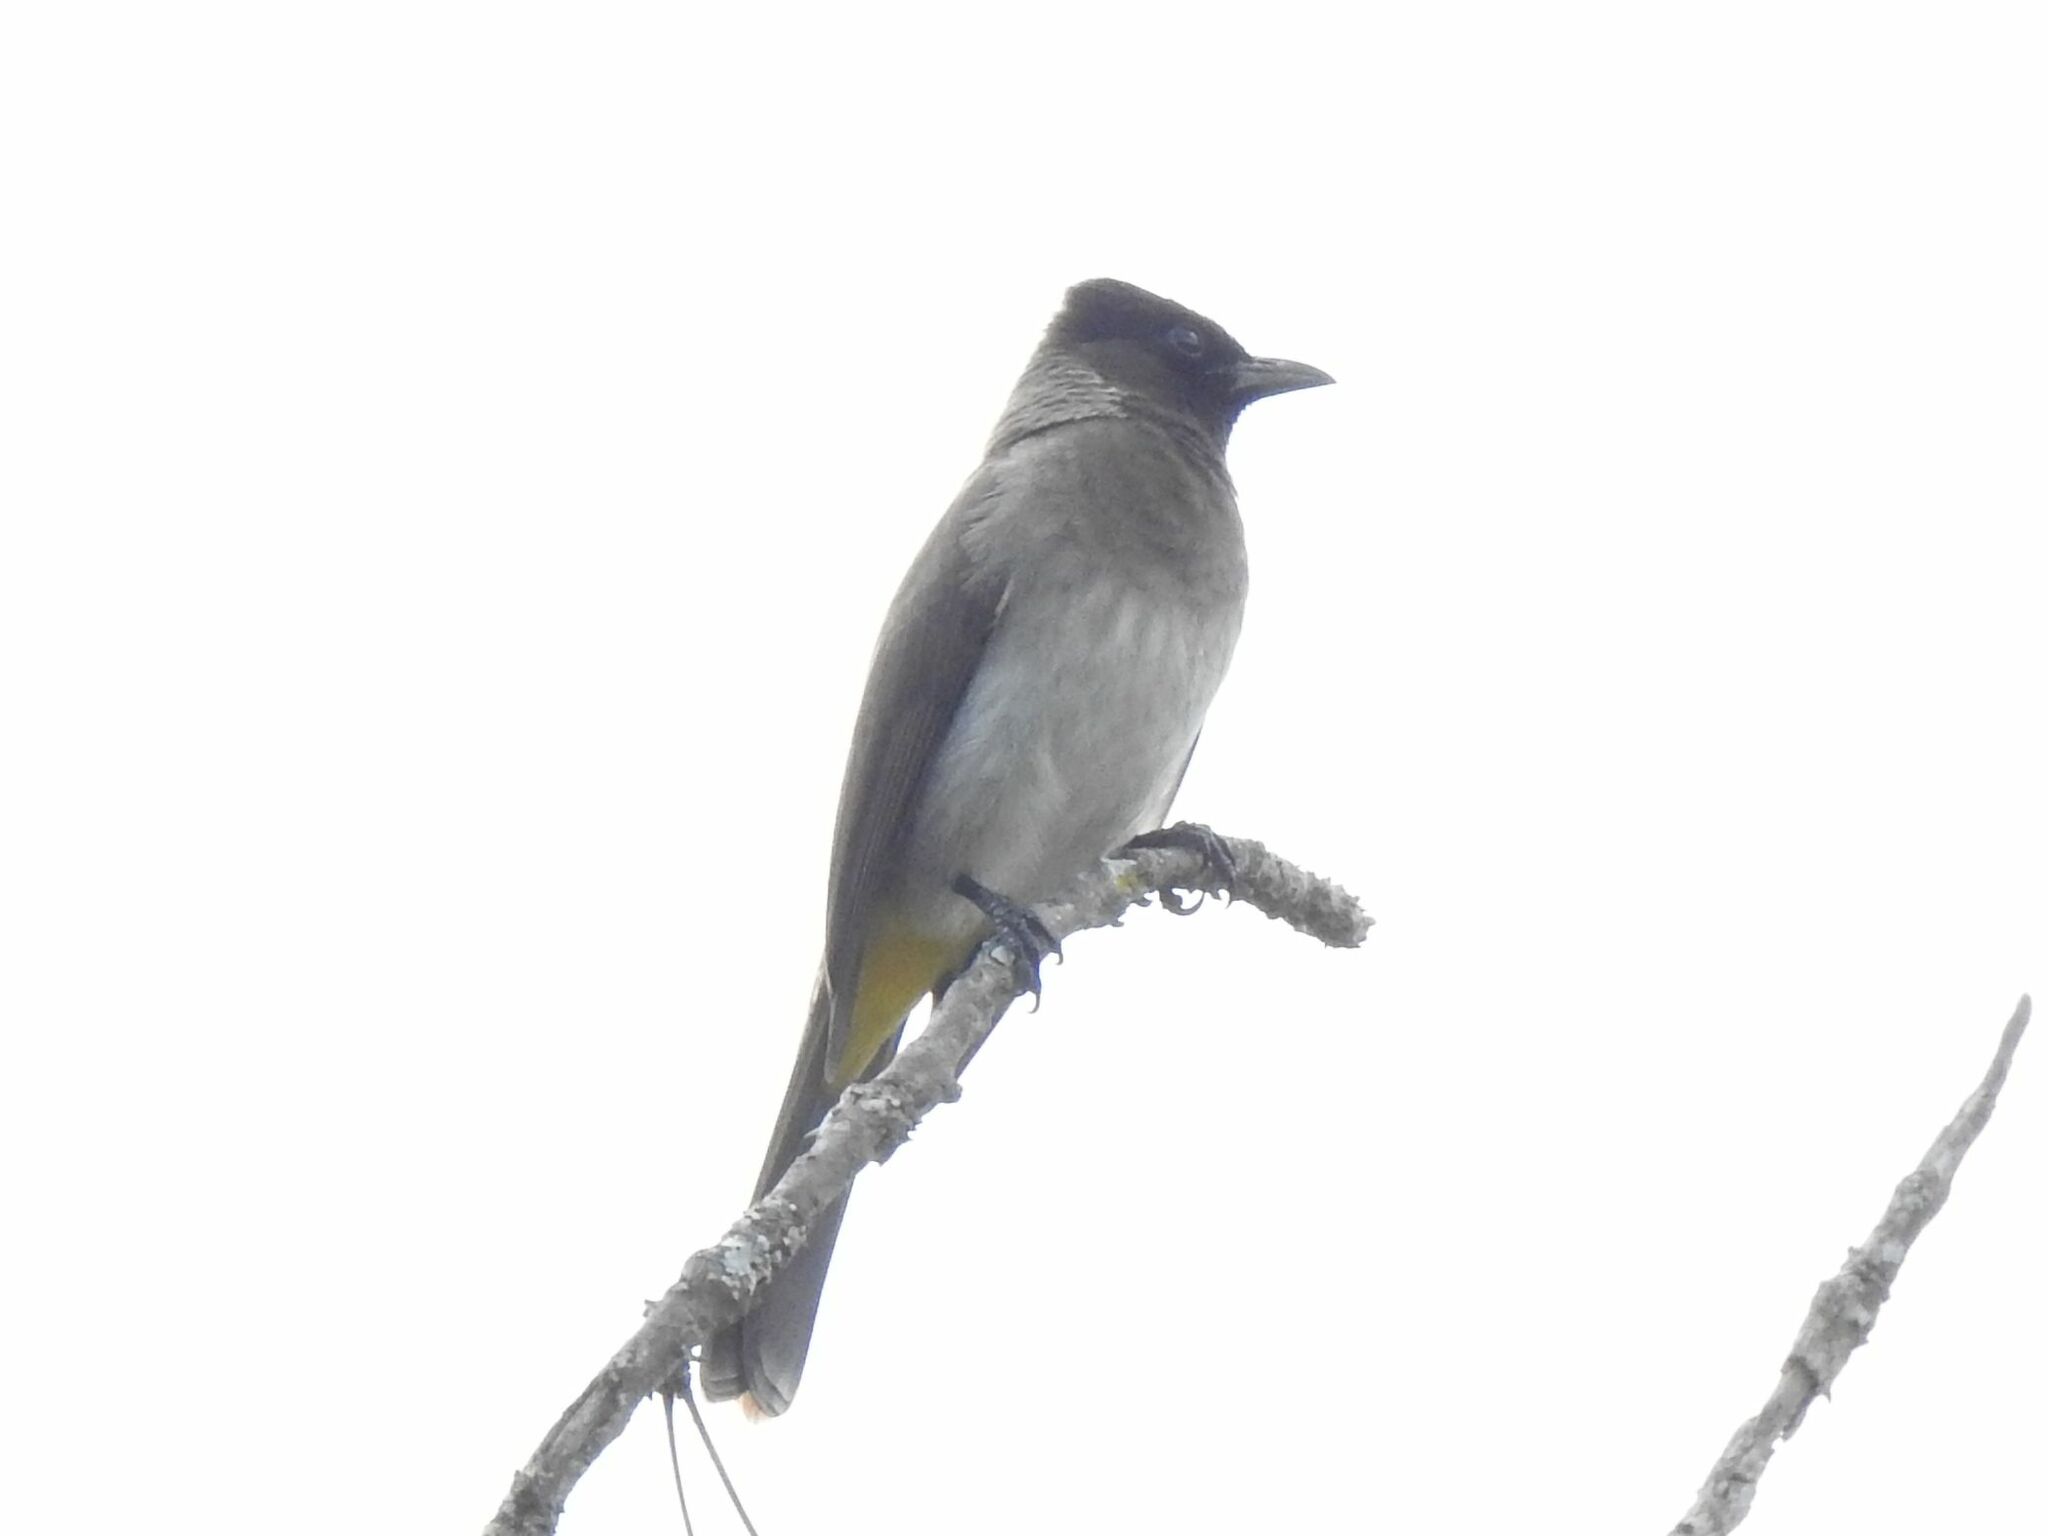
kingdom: Animalia
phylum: Chordata
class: Aves
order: Passeriformes
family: Pycnonotidae
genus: Pycnonotus
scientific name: Pycnonotus barbatus
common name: Common bulbul
